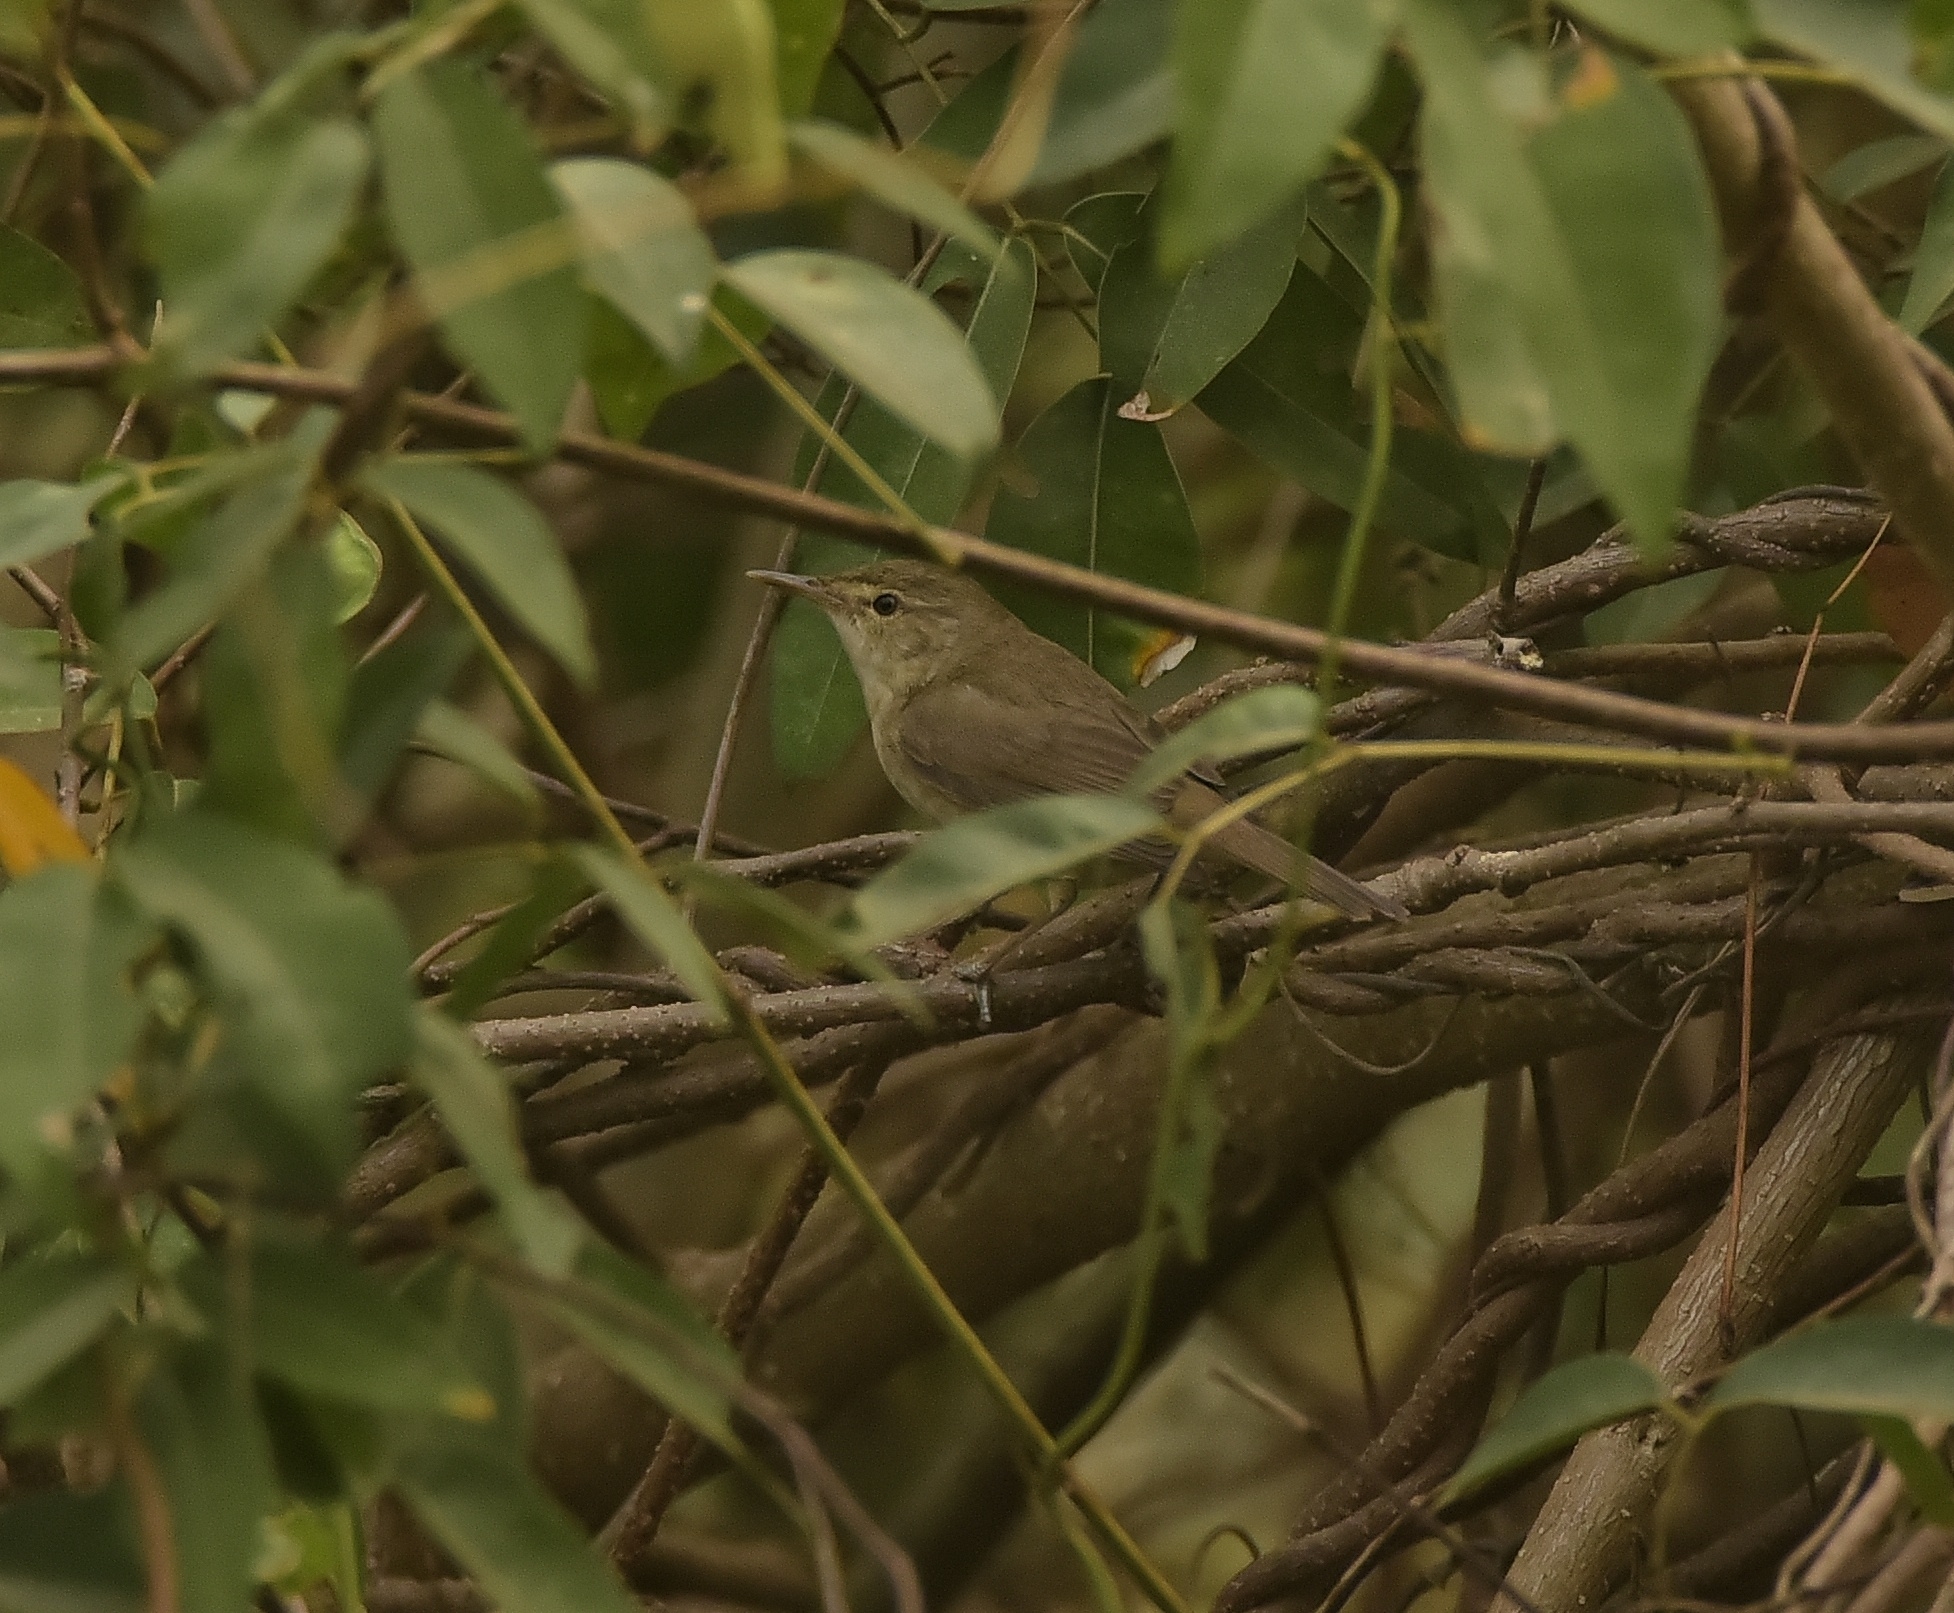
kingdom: Animalia
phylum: Chordata
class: Aves
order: Passeriformes
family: Acrocephalidae
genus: Acrocephalus
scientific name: Acrocephalus dumetorum
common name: Blyth's reed warbler
